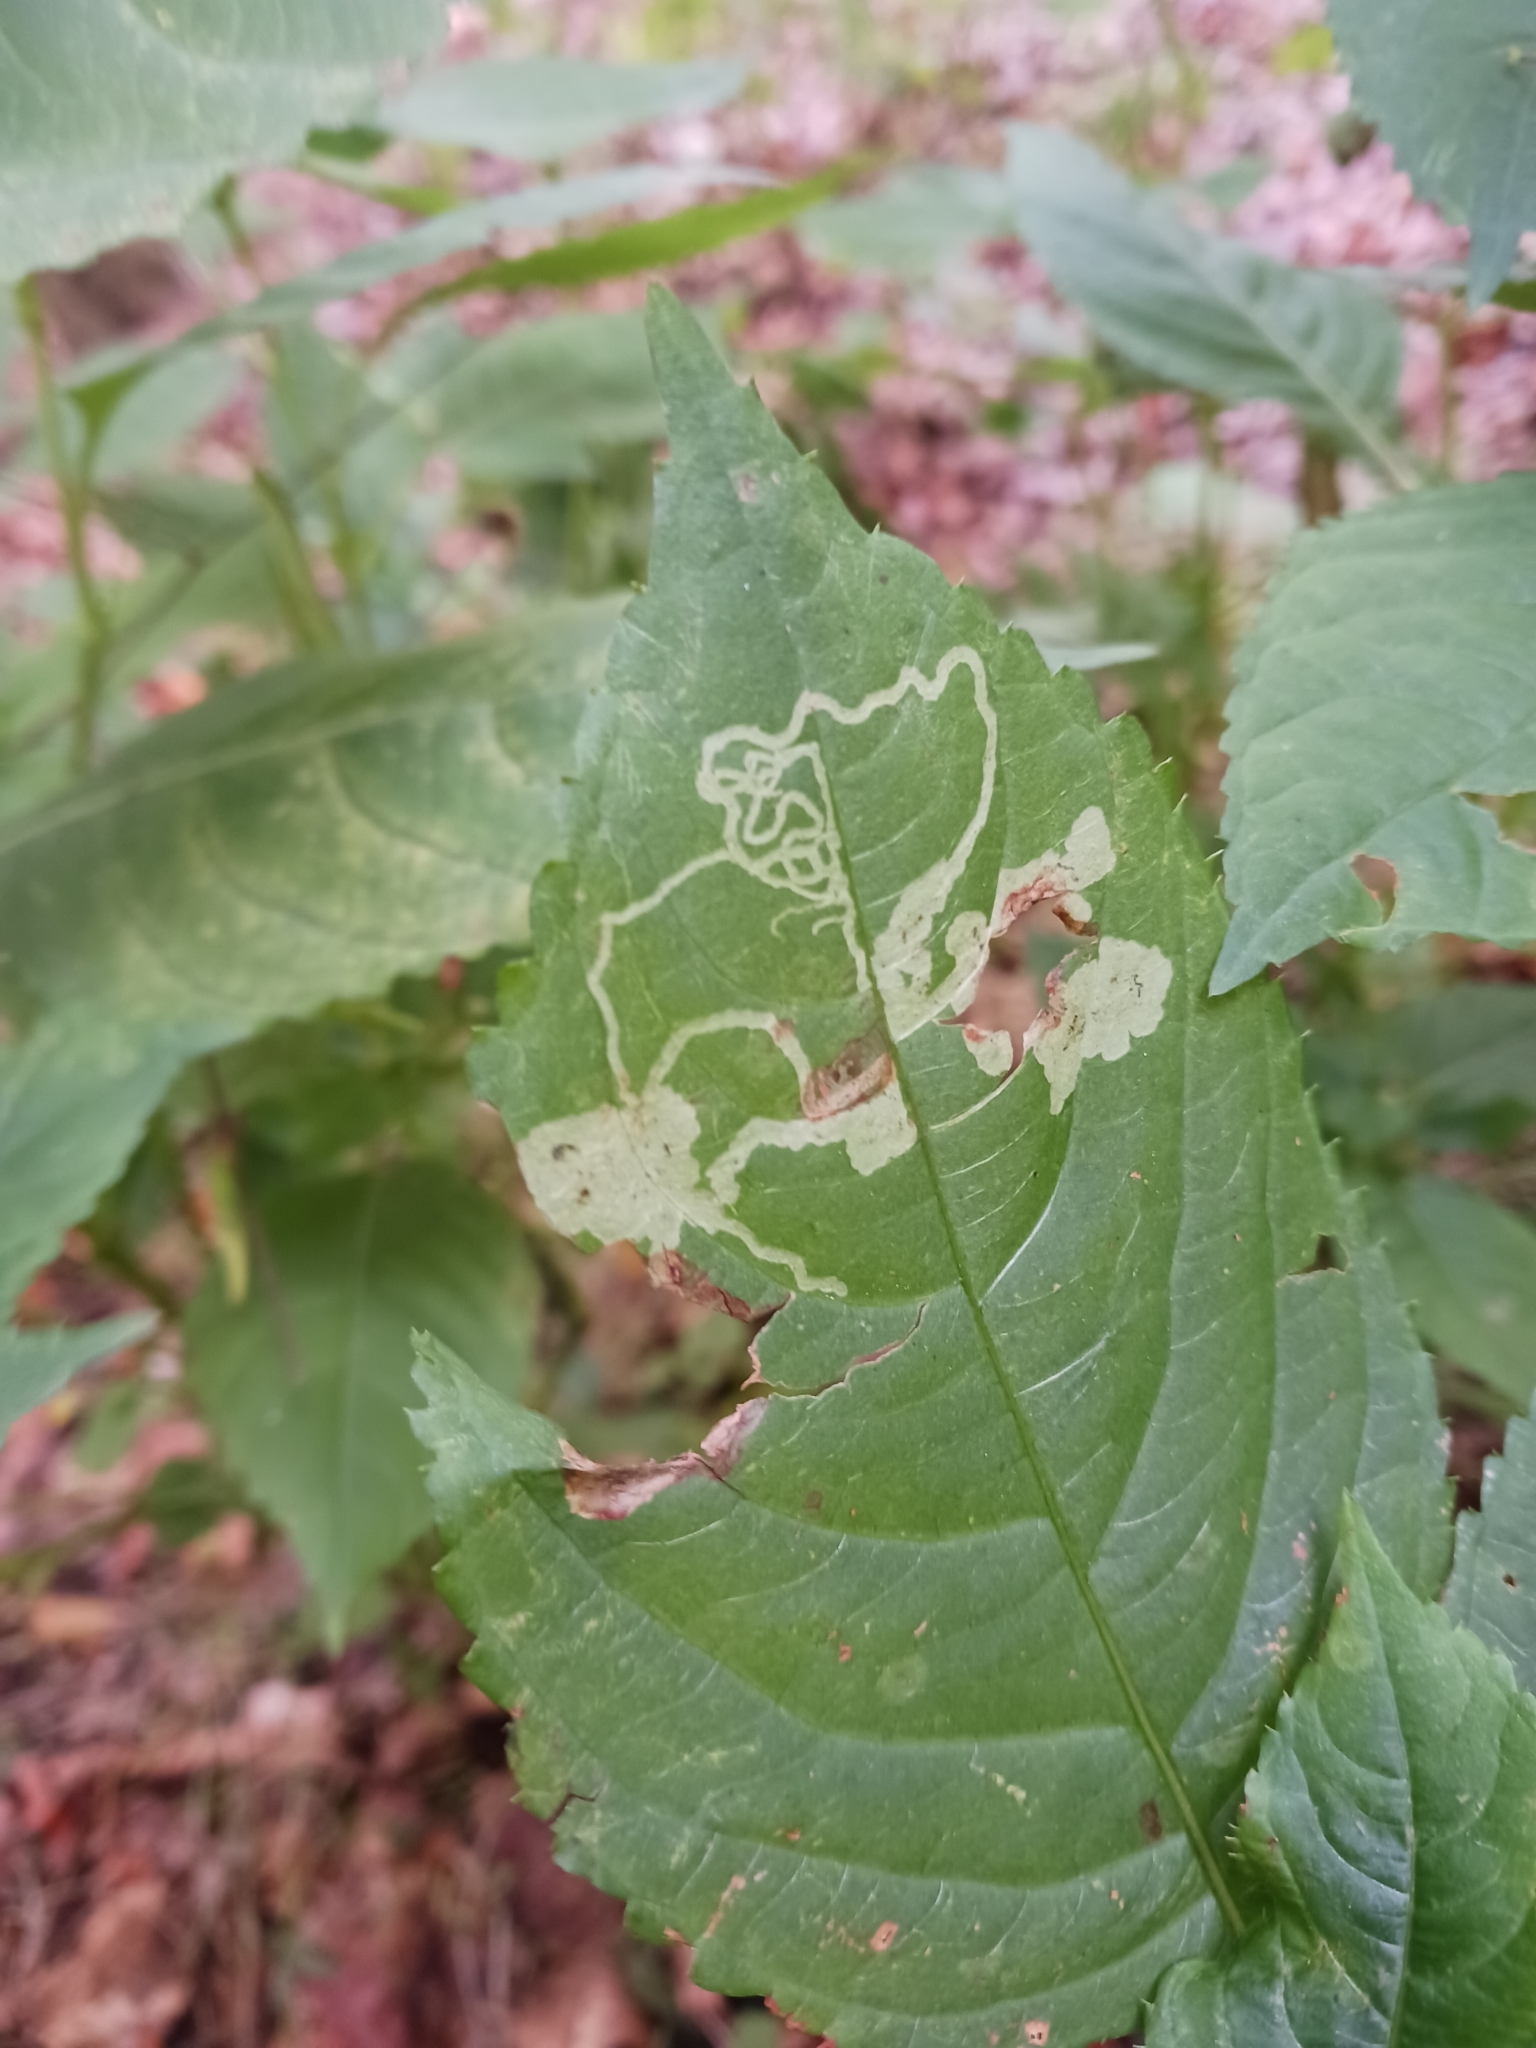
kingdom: Animalia
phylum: Arthropoda
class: Insecta
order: Diptera
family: Agromyzidae
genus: Phytoliriomyza
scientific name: Phytoliriomyza melampyga
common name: Jewelweed leaf-miner fly
